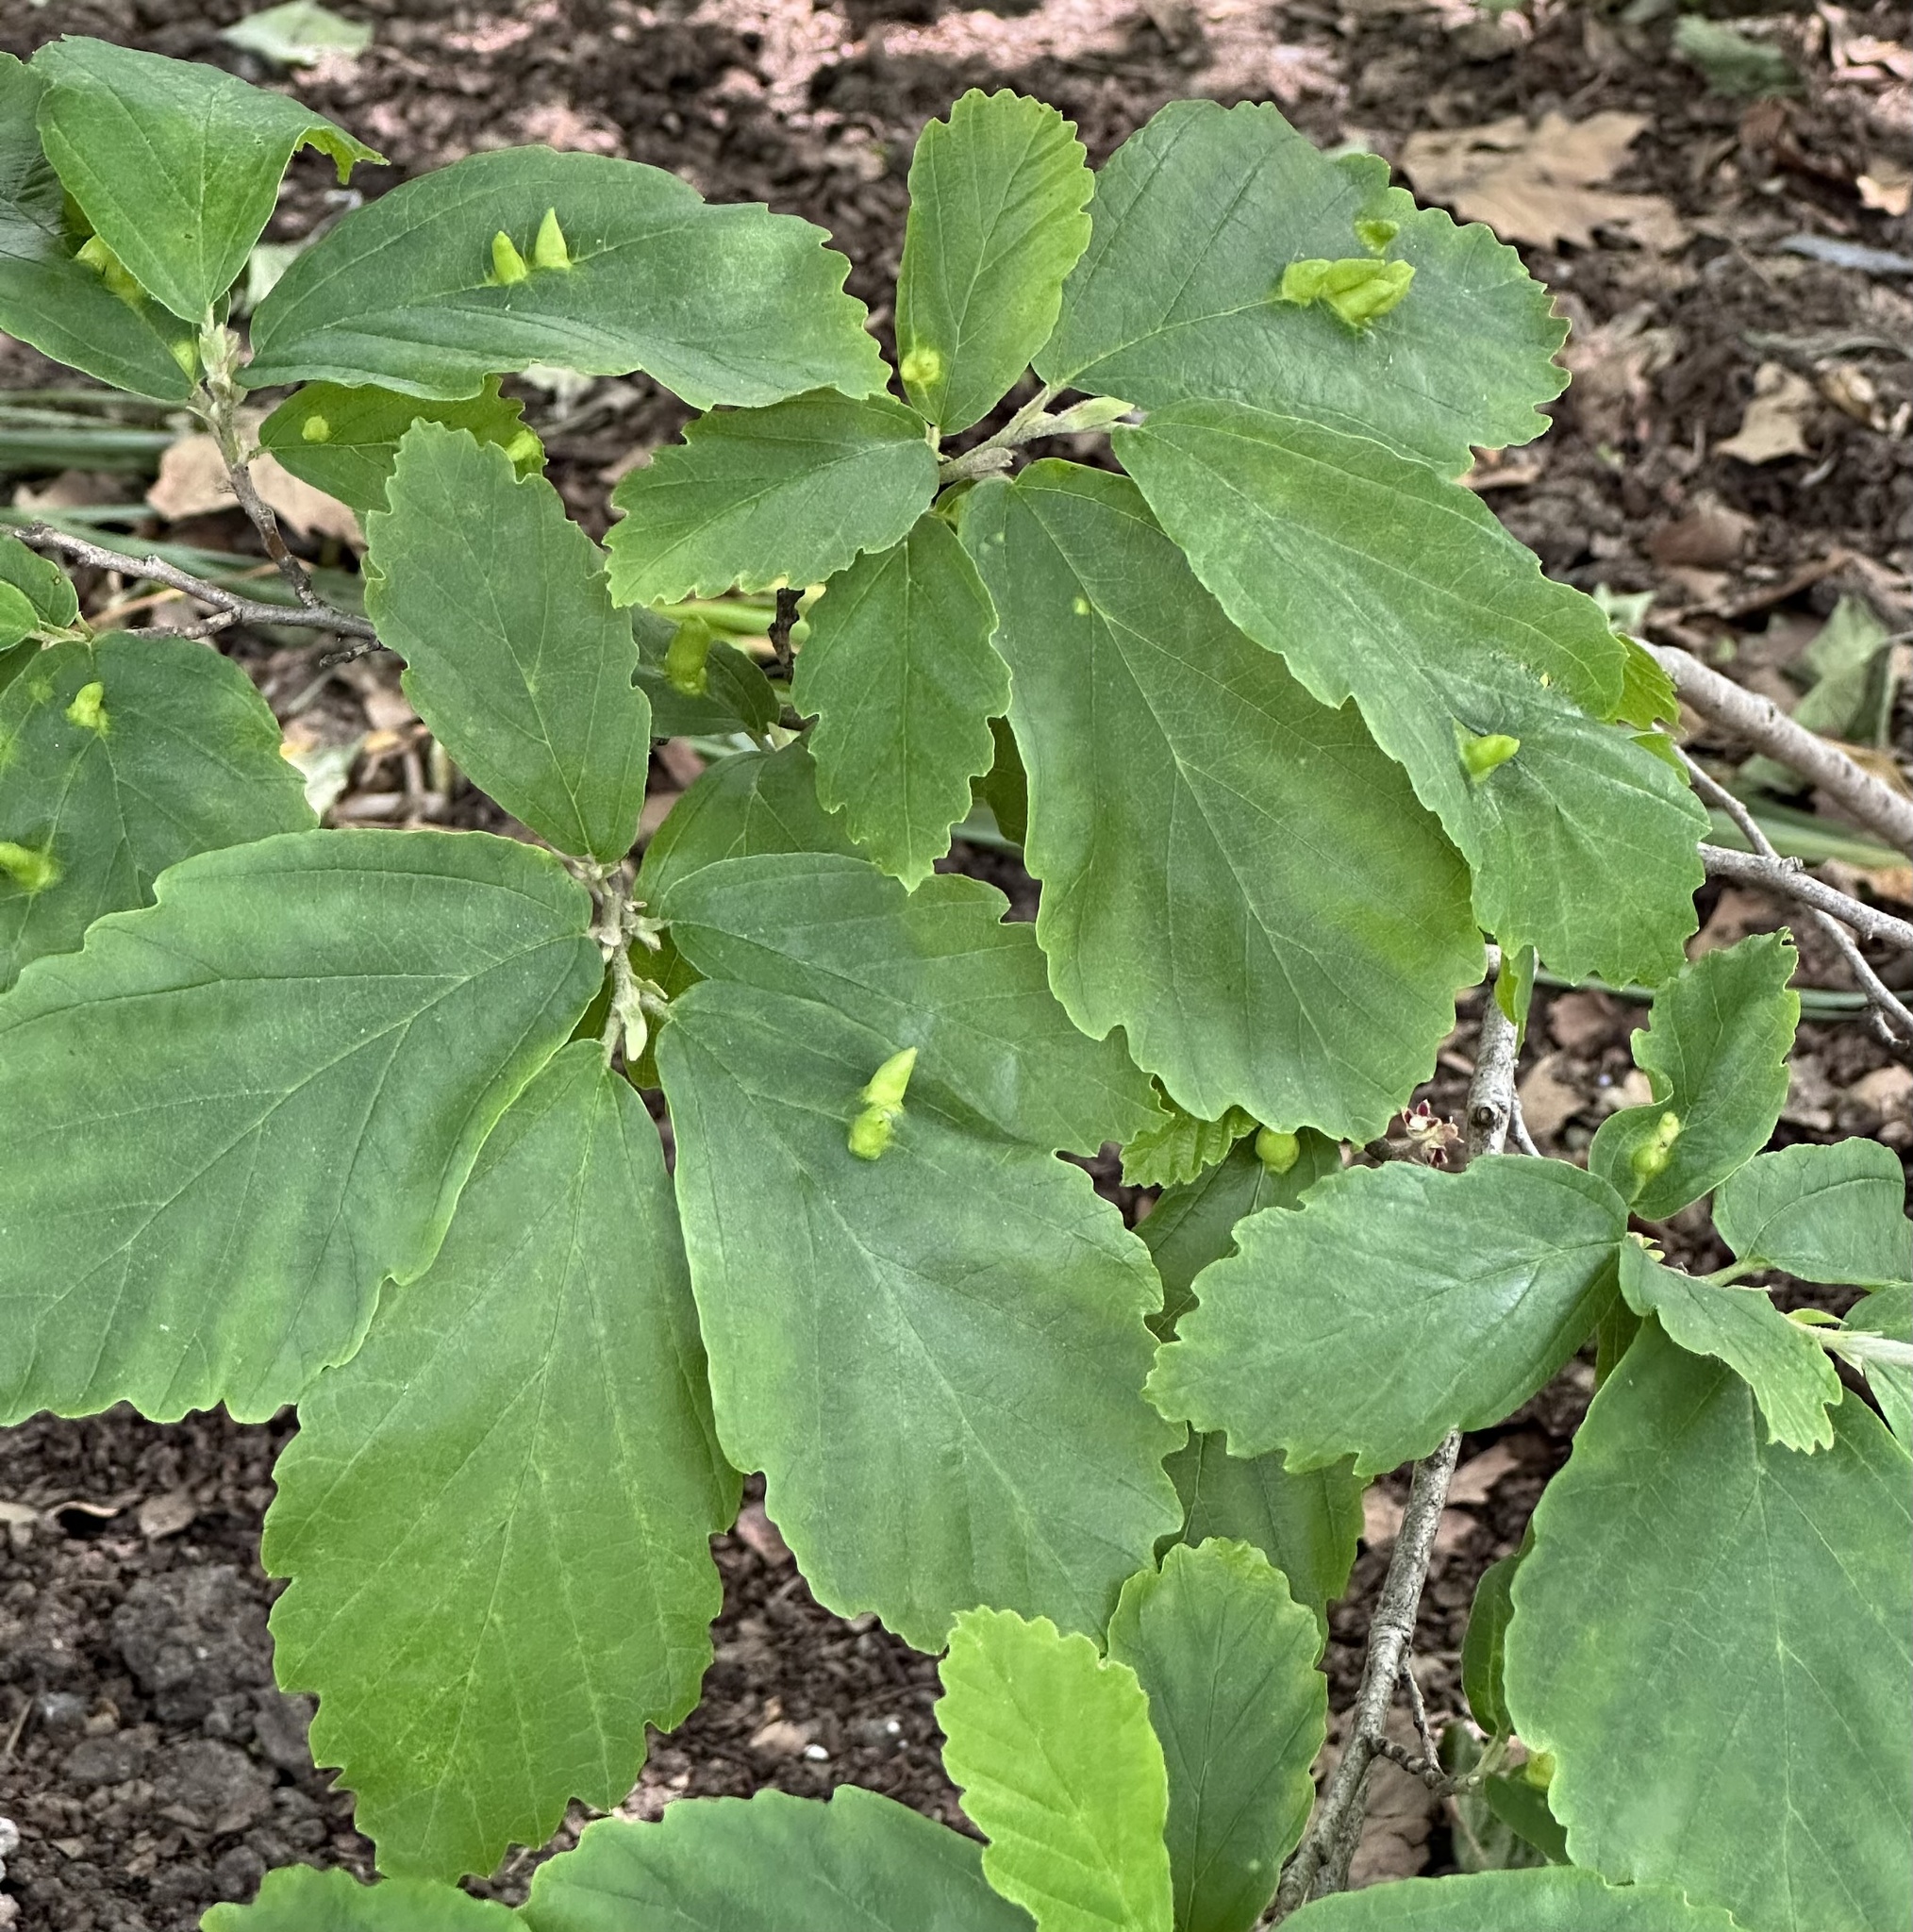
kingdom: Animalia
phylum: Arthropoda
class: Insecta
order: Hemiptera
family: Aphididae
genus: Hormaphis
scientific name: Hormaphis hamamelidis
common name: Witch-hazel cone gall aphid
